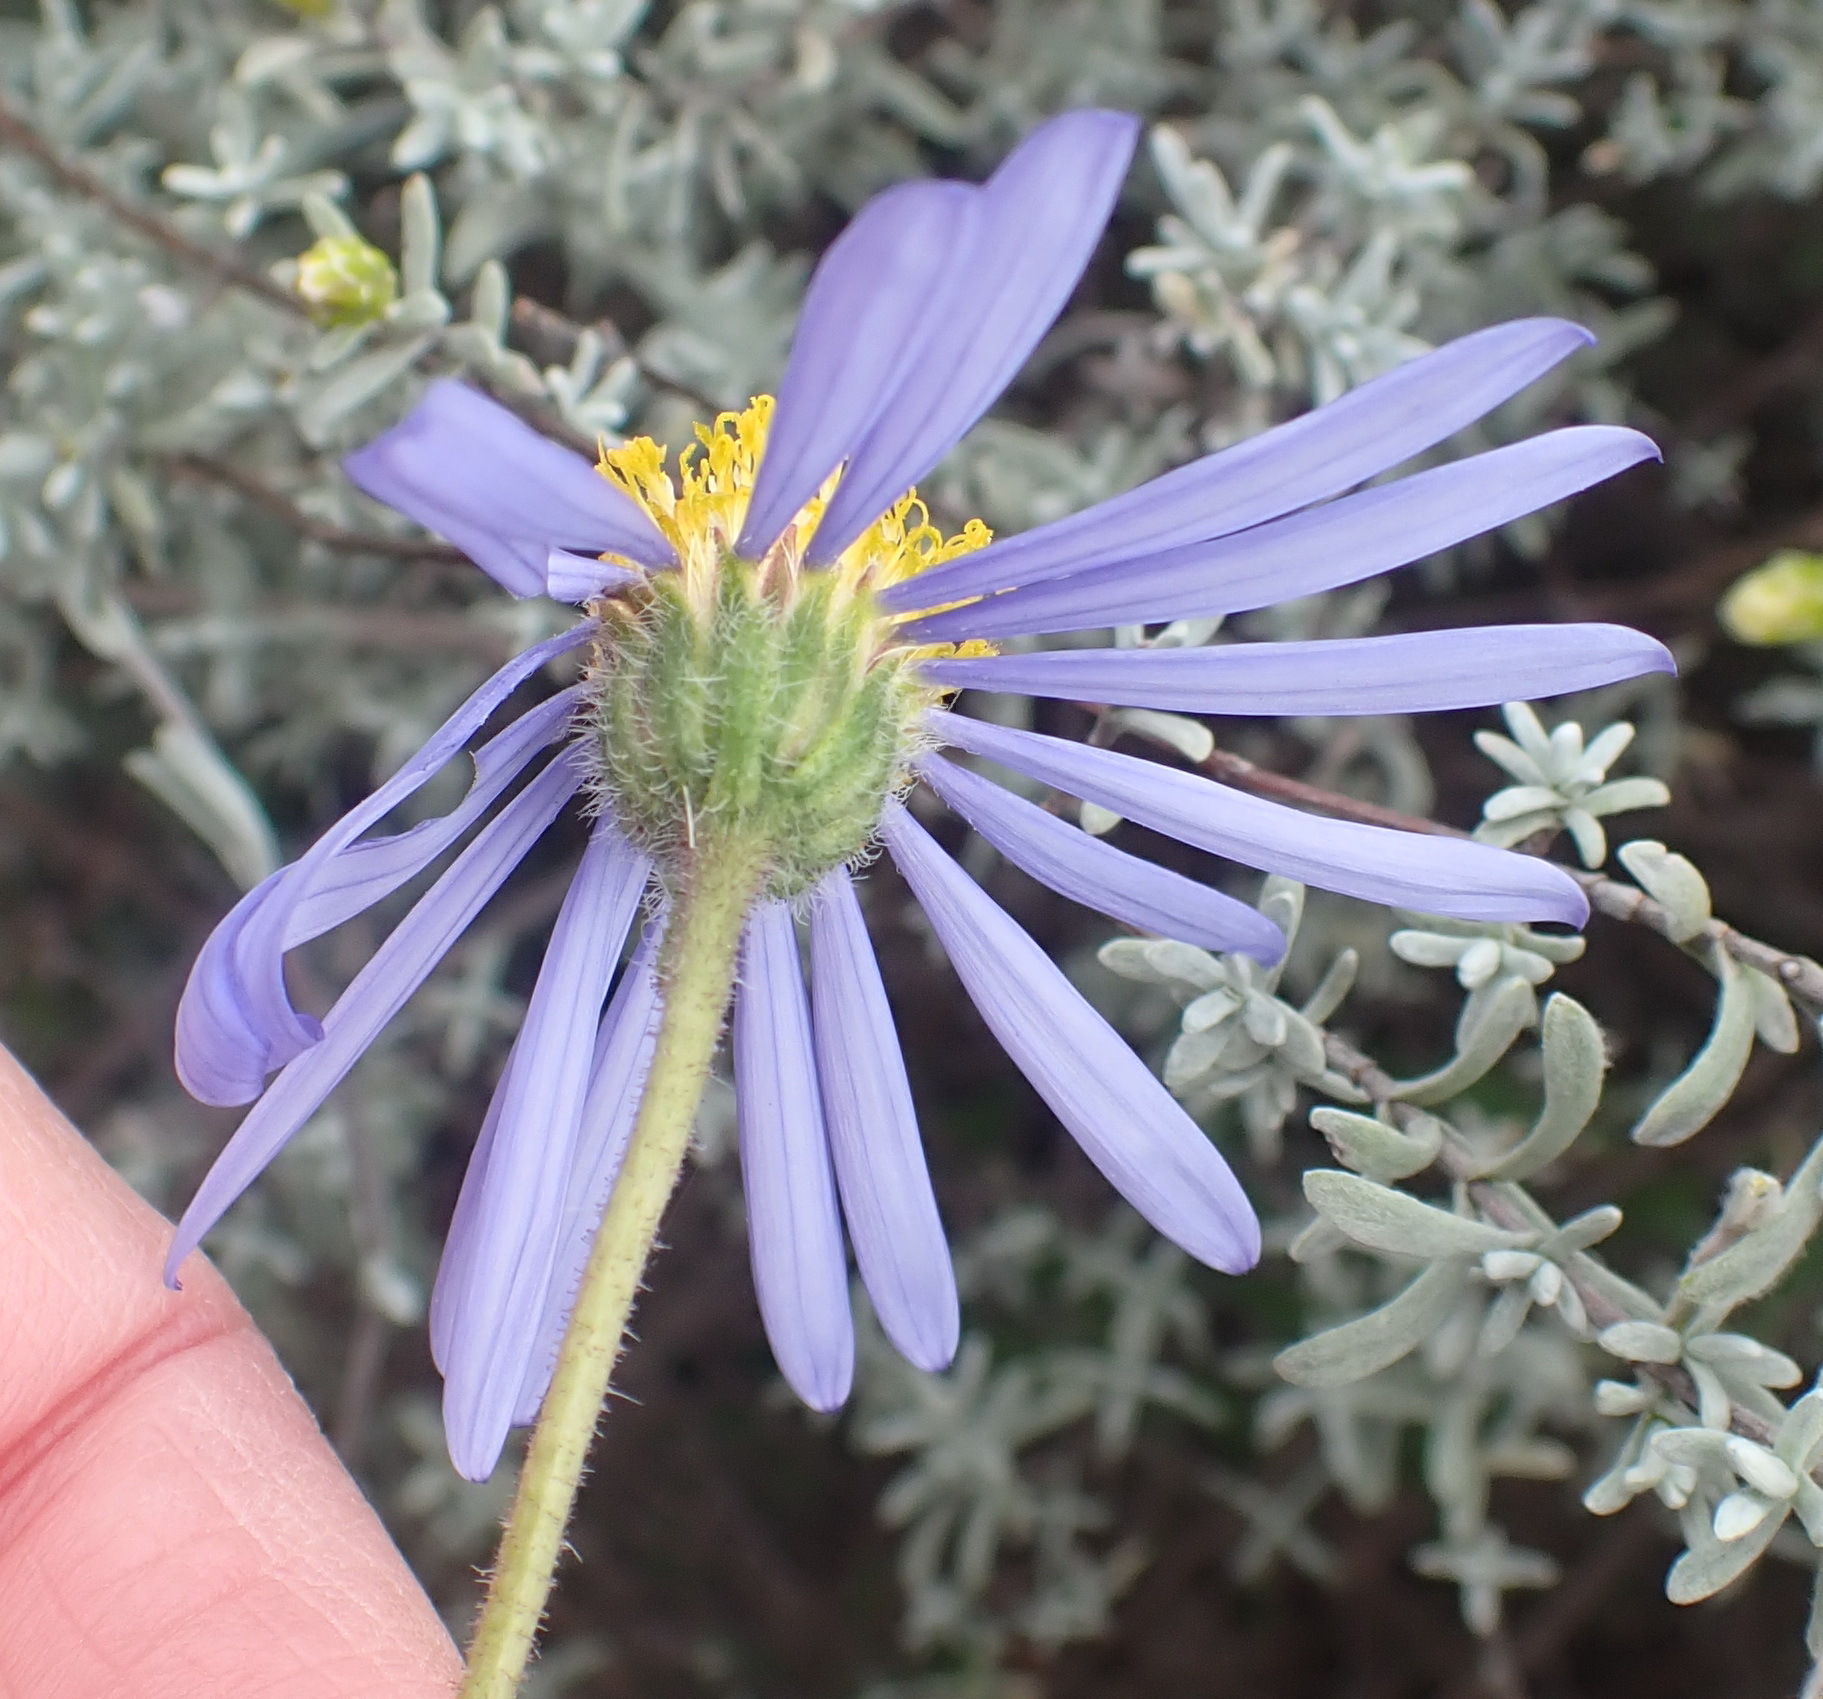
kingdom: Plantae
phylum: Tracheophyta
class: Magnoliopsida
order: Asterales
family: Asteraceae
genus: Felicia
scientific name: Felicia ovata
